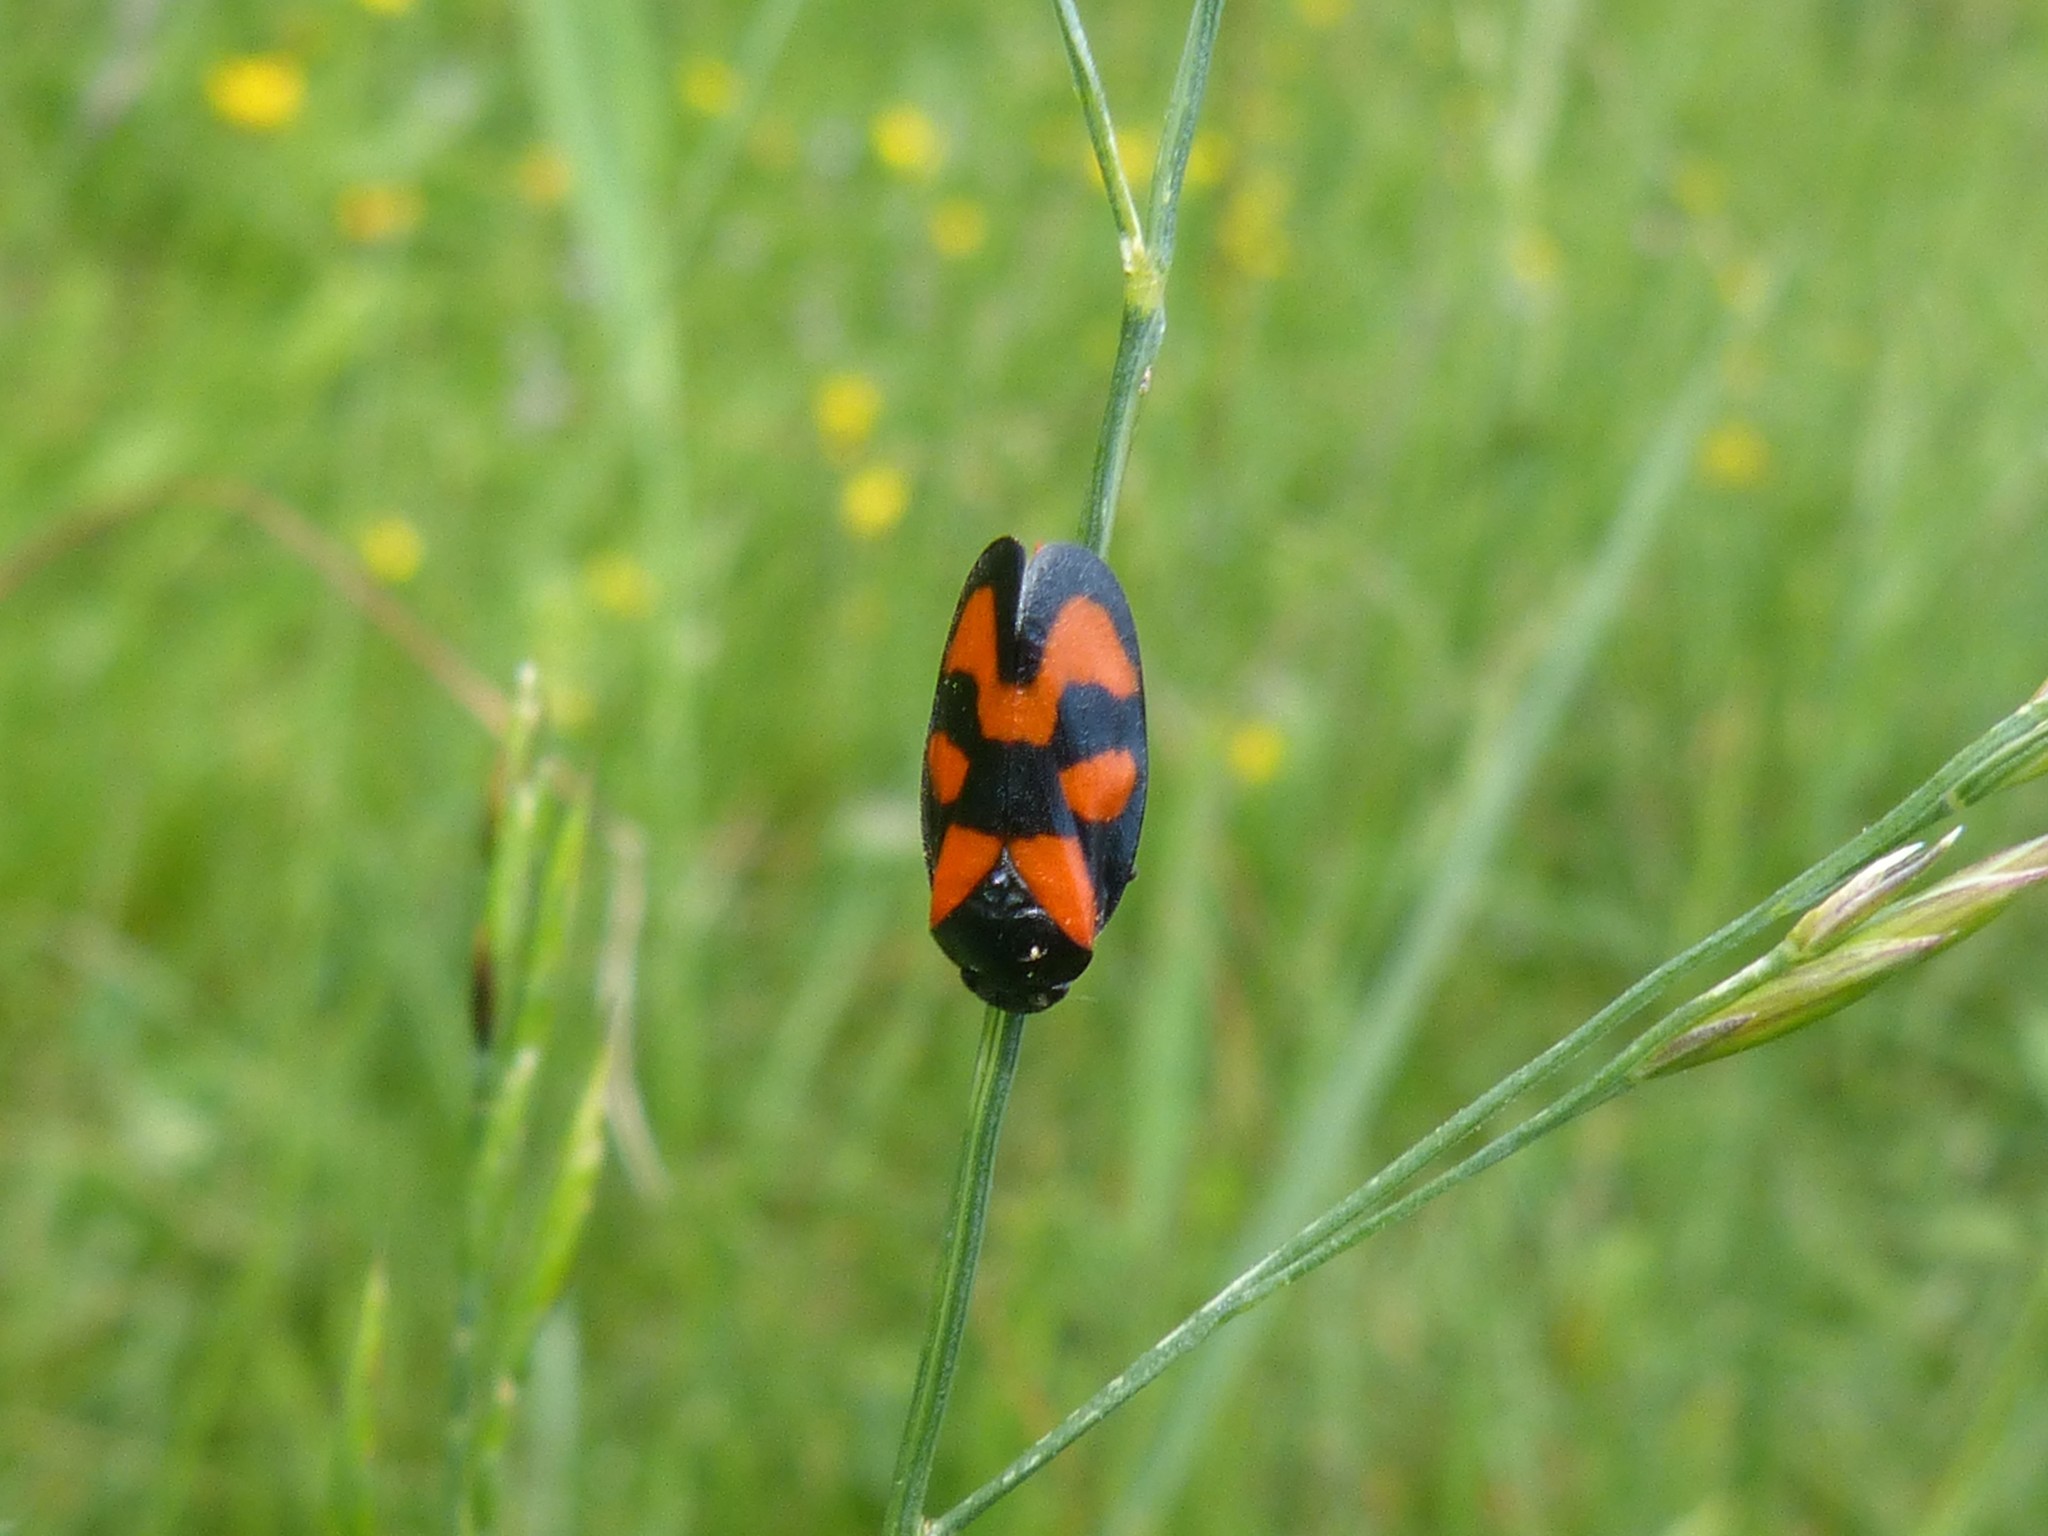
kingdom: Animalia
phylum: Arthropoda
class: Insecta
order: Hemiptera
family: Cercopidae
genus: Cercopis
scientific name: Cercopis vulnerata
